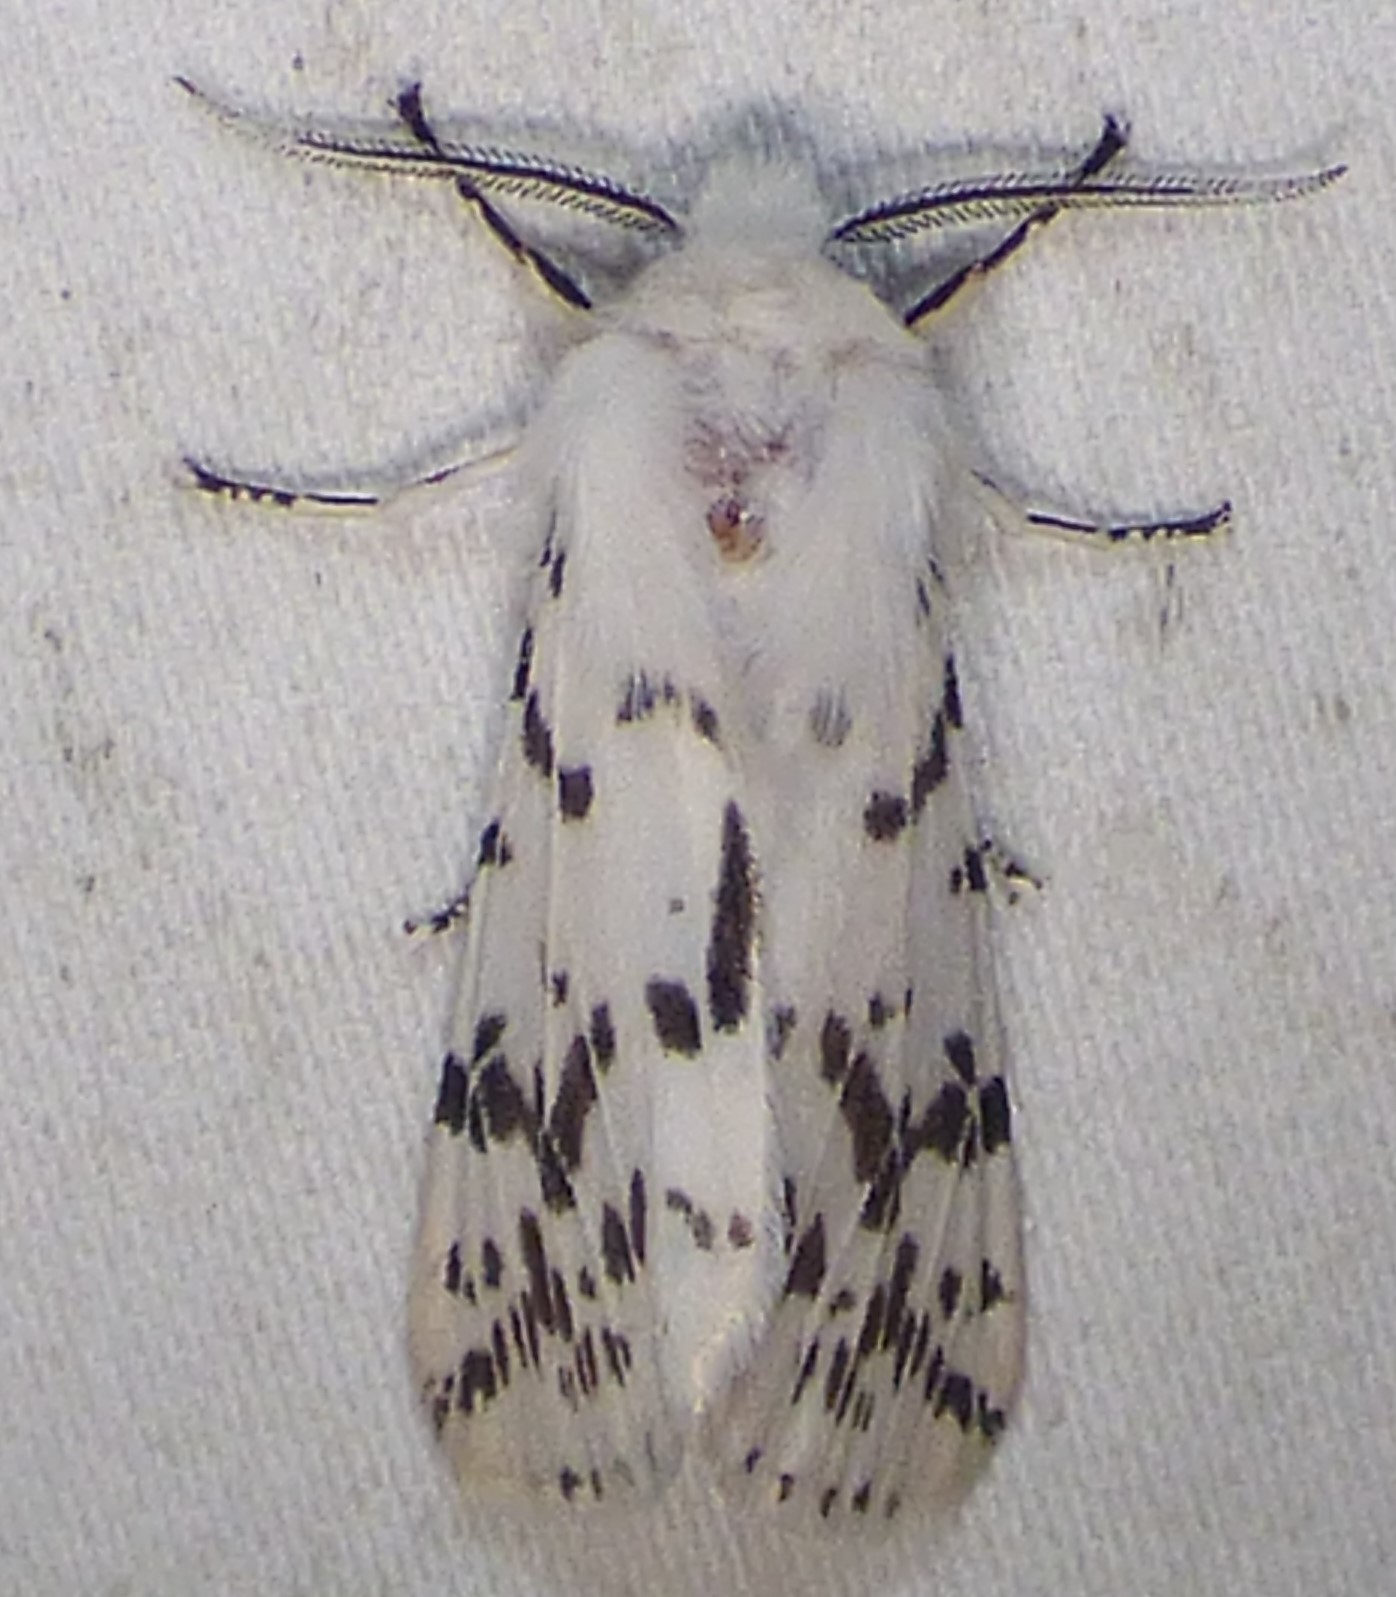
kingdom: Animalia
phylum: Arthropoda
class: Insecta
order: Lepidoptera
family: Erebidae
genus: Hyphantria
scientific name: Hyphantria cunea
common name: American white moth
